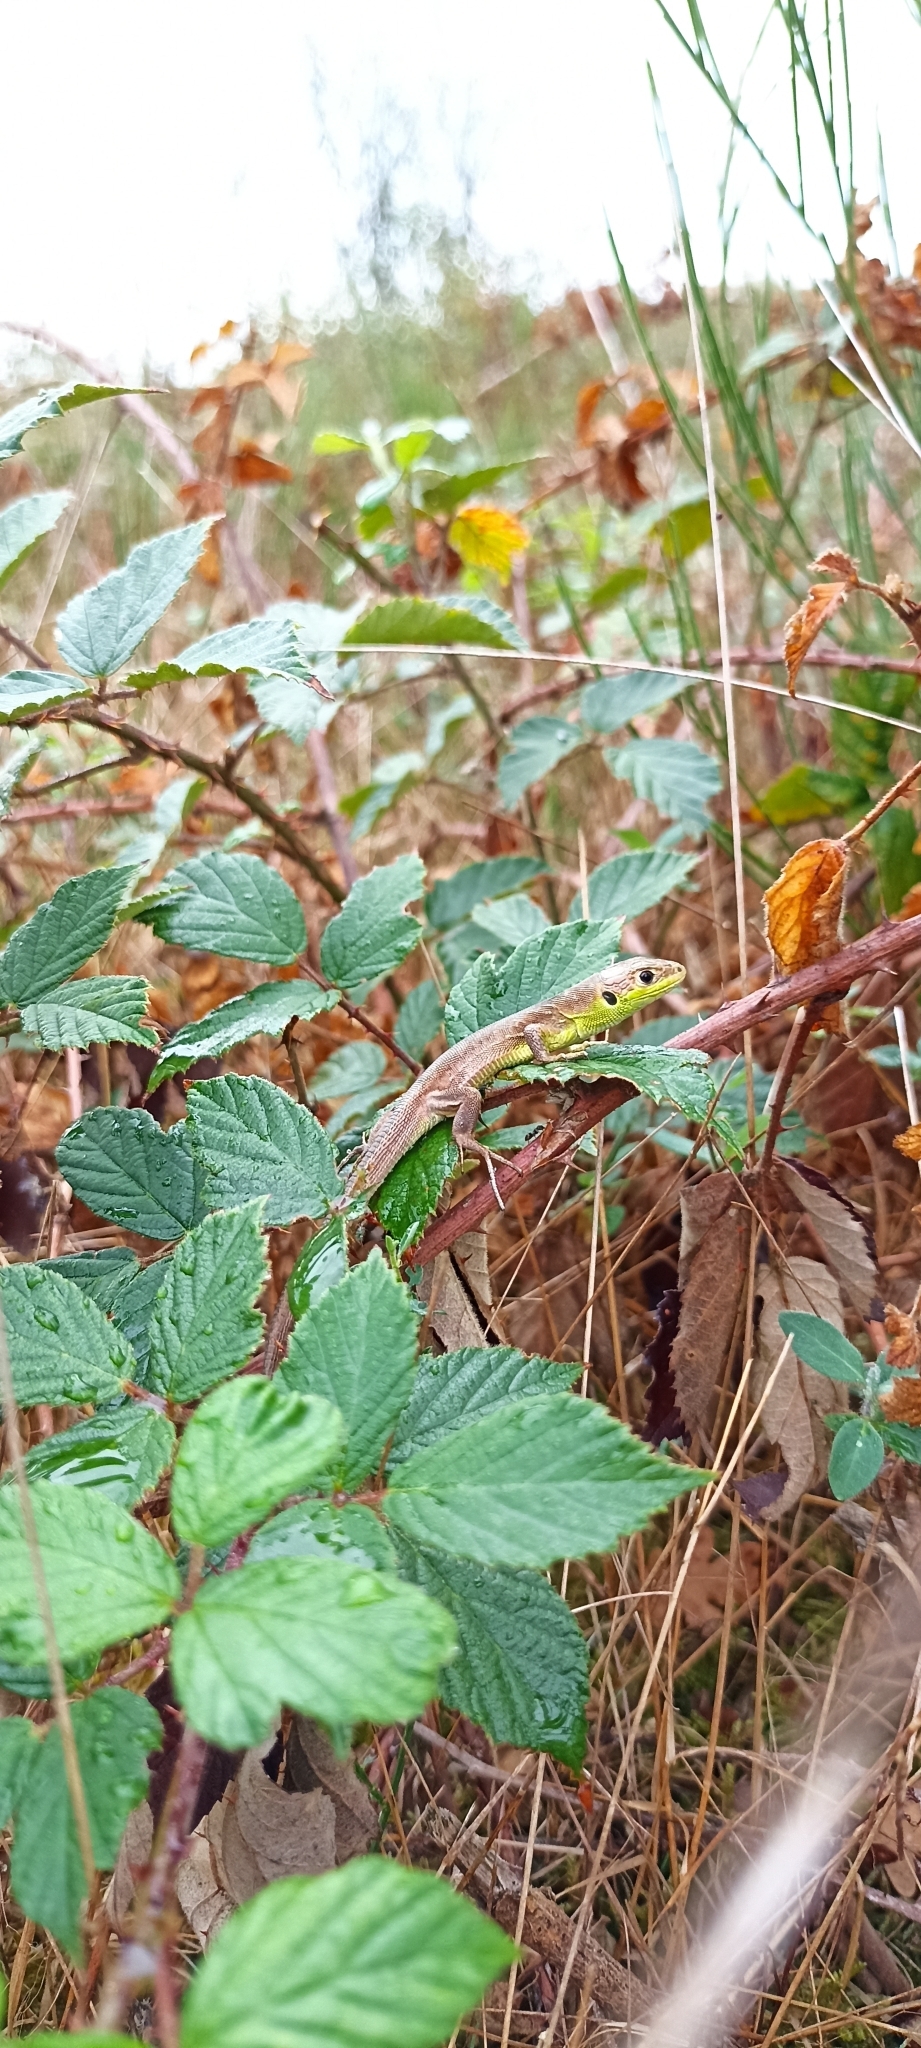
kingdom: Animalia
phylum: Chordata
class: Squamata
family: Lacertidae
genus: Lacerta
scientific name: Lacerta bilineata
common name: Western green lizard
